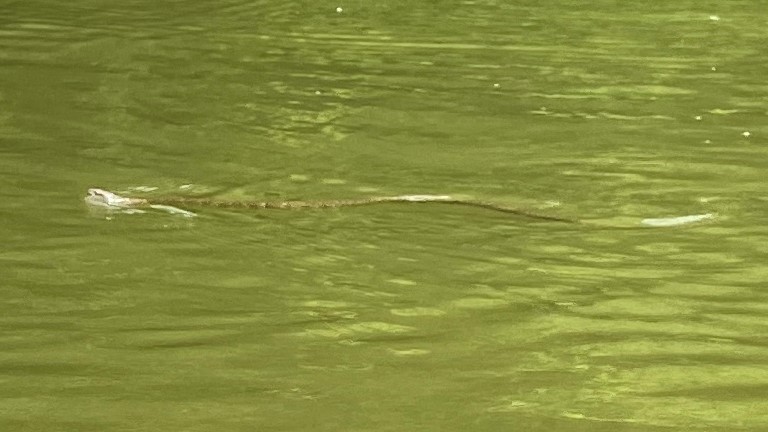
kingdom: Animalia
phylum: Chordata
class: Squamata
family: Colubridae
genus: Nerodia
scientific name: Nerodia sipedon
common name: Northern water snake
